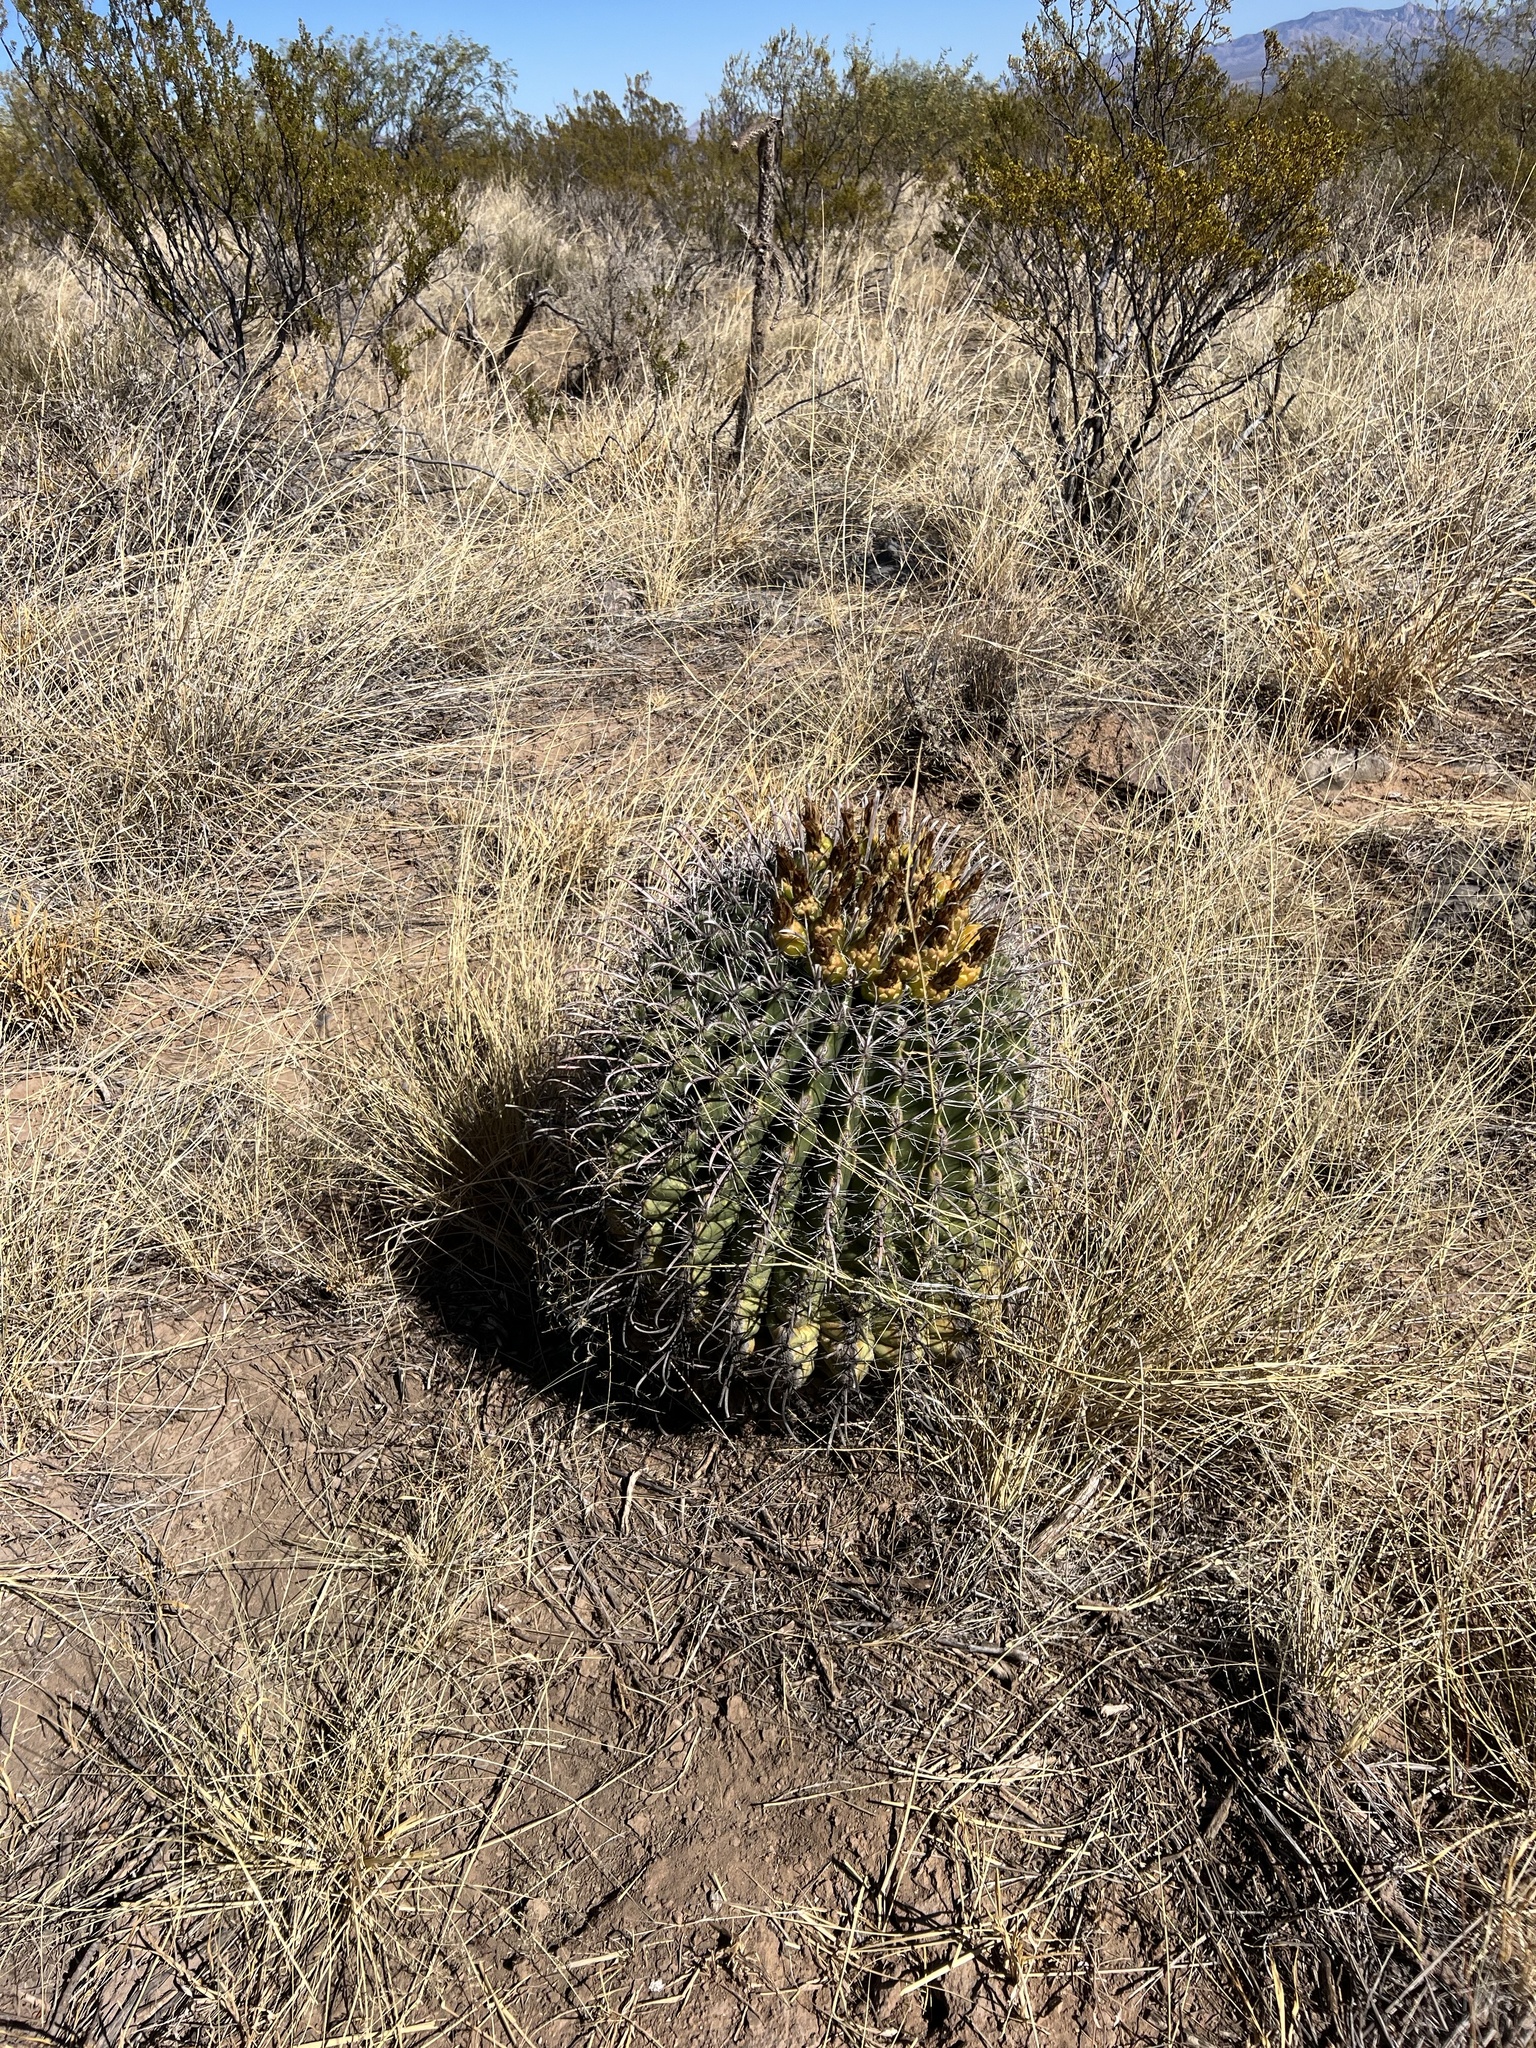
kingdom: Plantae
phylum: Tracheophyta
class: Magnoliopsida
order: Caryophyllales
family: Cactaceae
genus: Ferocactus
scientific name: Ferocactus wislizeni
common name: Candy barrel cactus
